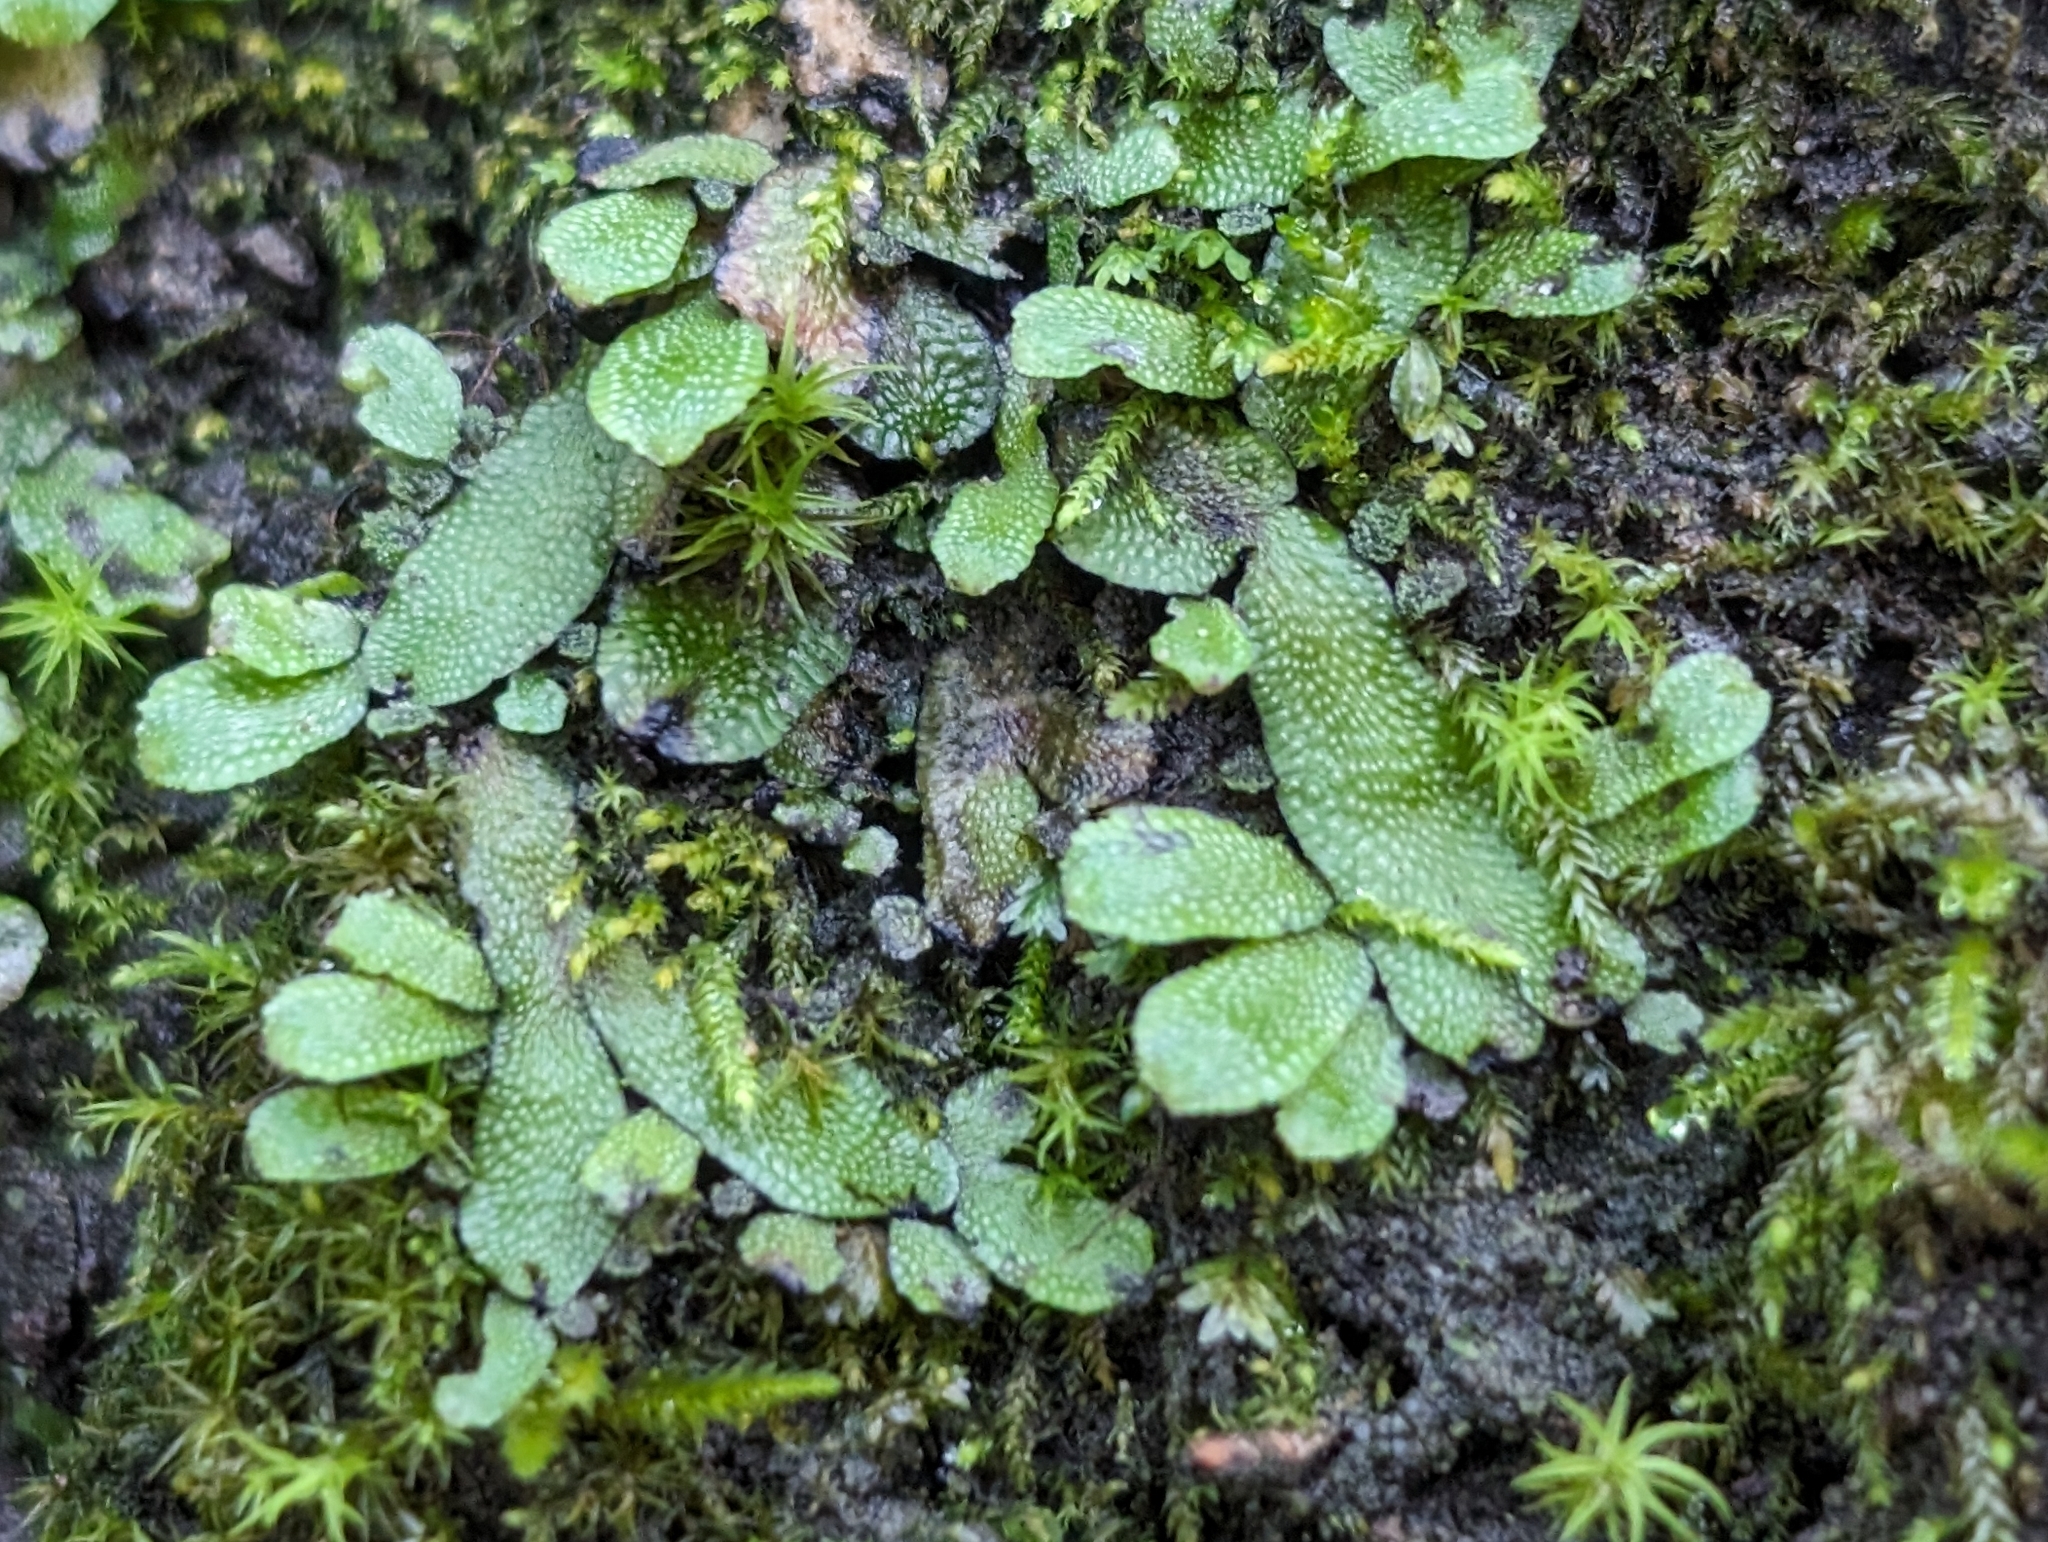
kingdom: Plantae
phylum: Marchantiophyta
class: Marchantiopsida
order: Marchantiales
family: Targioniaceae
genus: Targionia
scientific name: Targionia hypophylla
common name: Orobus-seed liverwort
